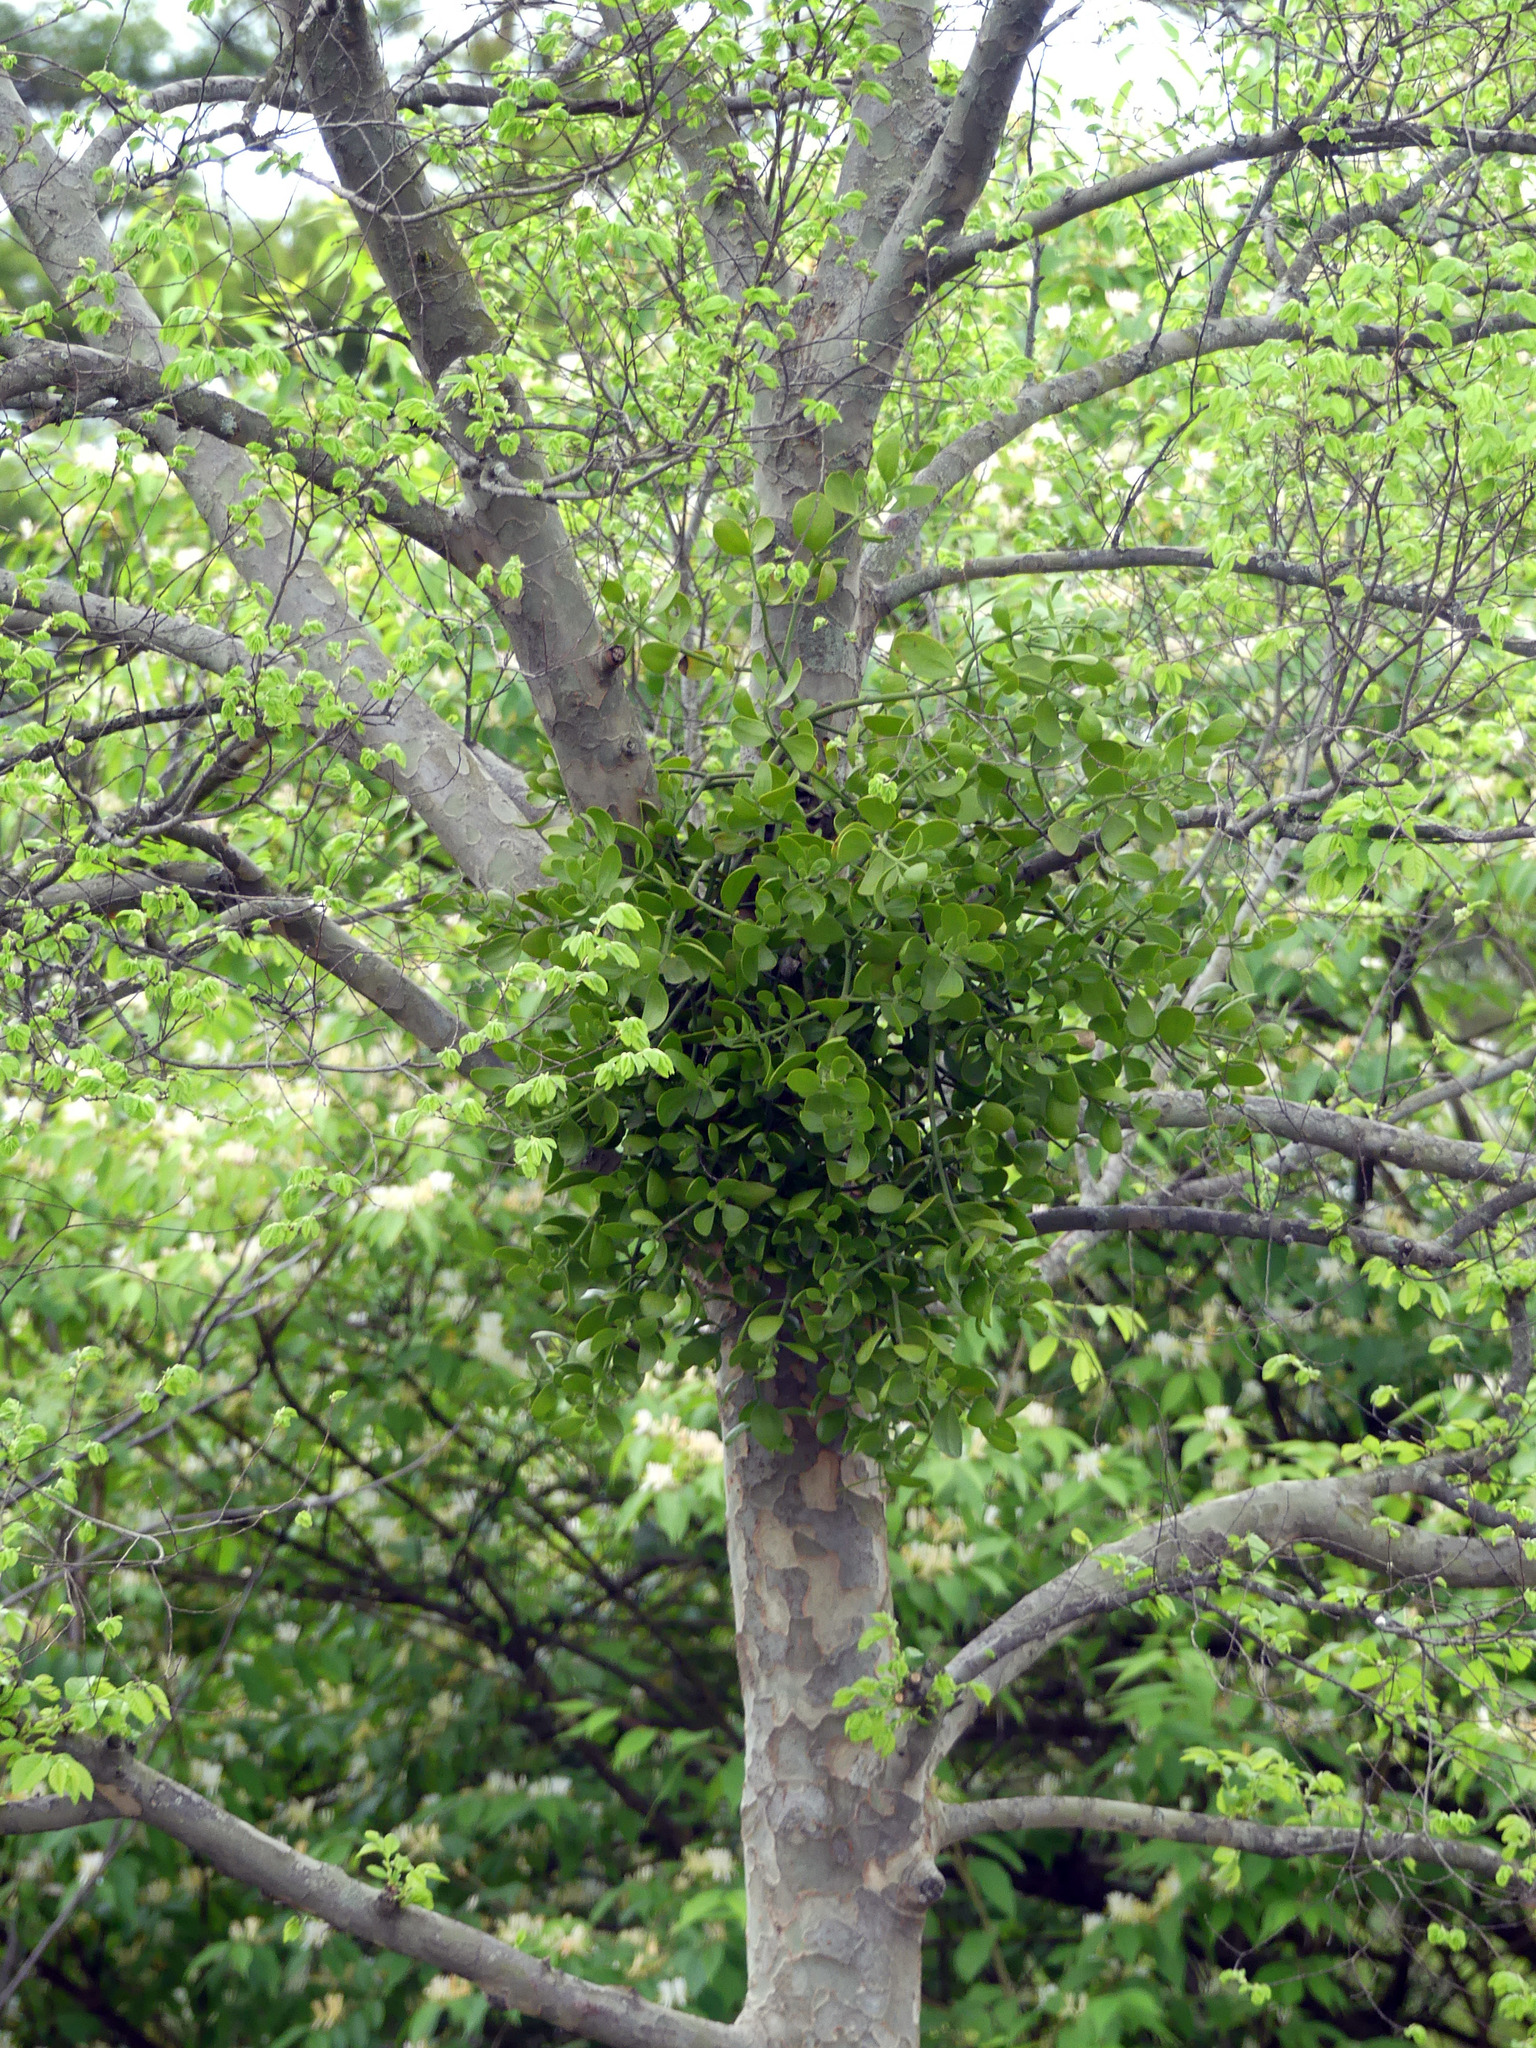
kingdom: Plantae
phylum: Tracheophyta
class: Magnoliopsida
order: Santalales
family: Viscaceae
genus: Phoradendron
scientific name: Phoradendron leucarpum
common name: Pacific mistletoe
